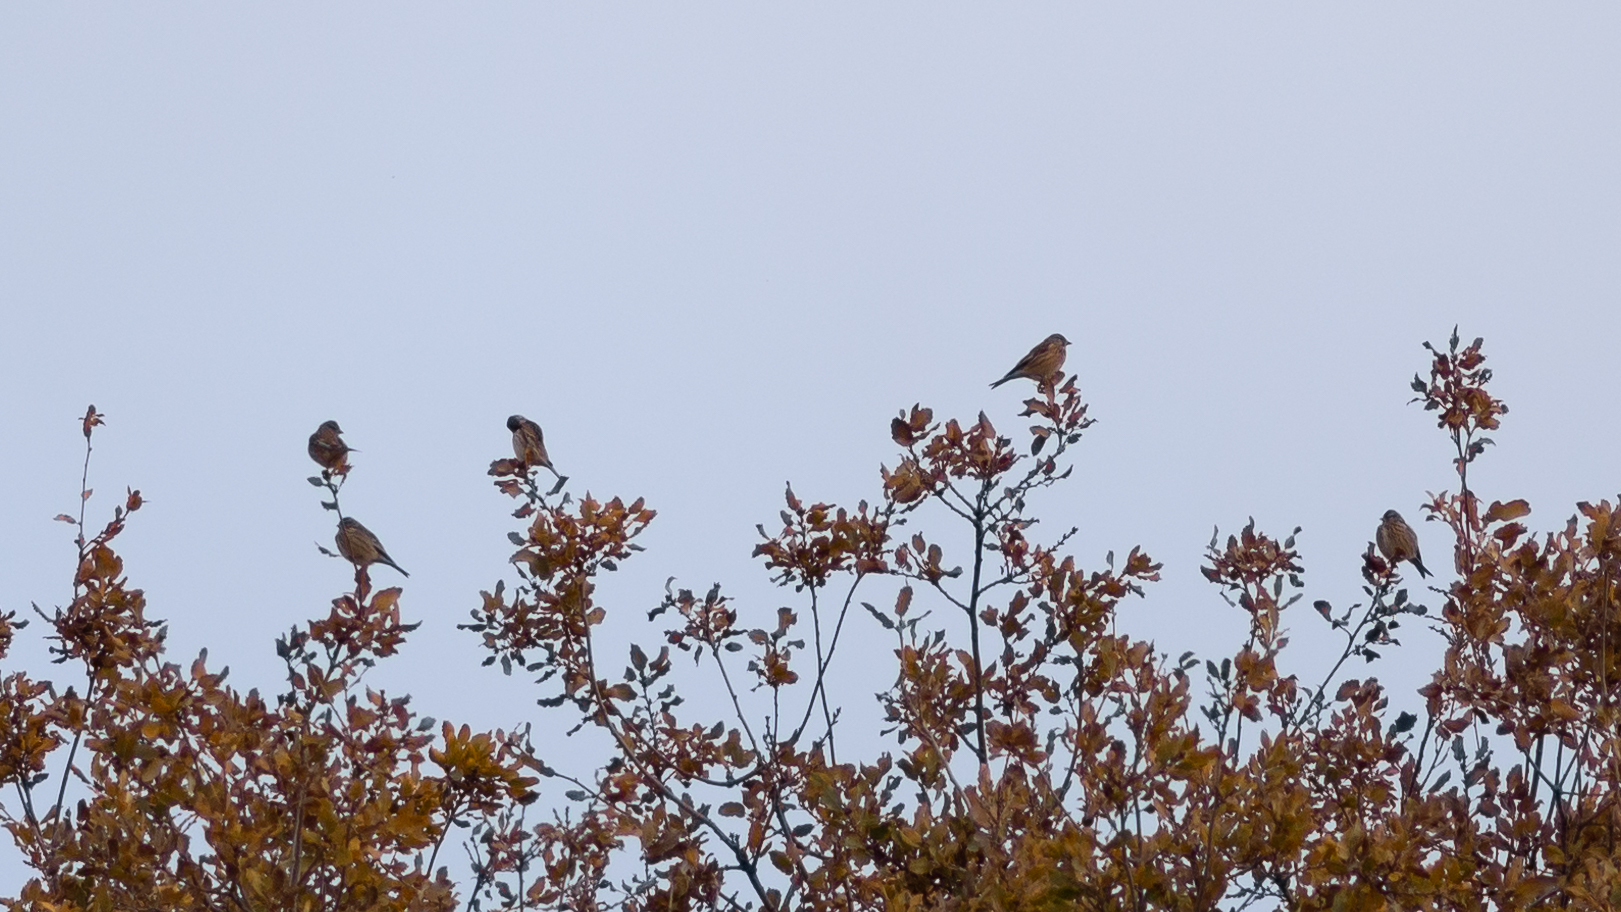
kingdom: Animalia
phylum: Chordata
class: Aves
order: Passeriformes
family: Fringillidae
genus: Linaria
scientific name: Linaria cannabina
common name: Common linnet
